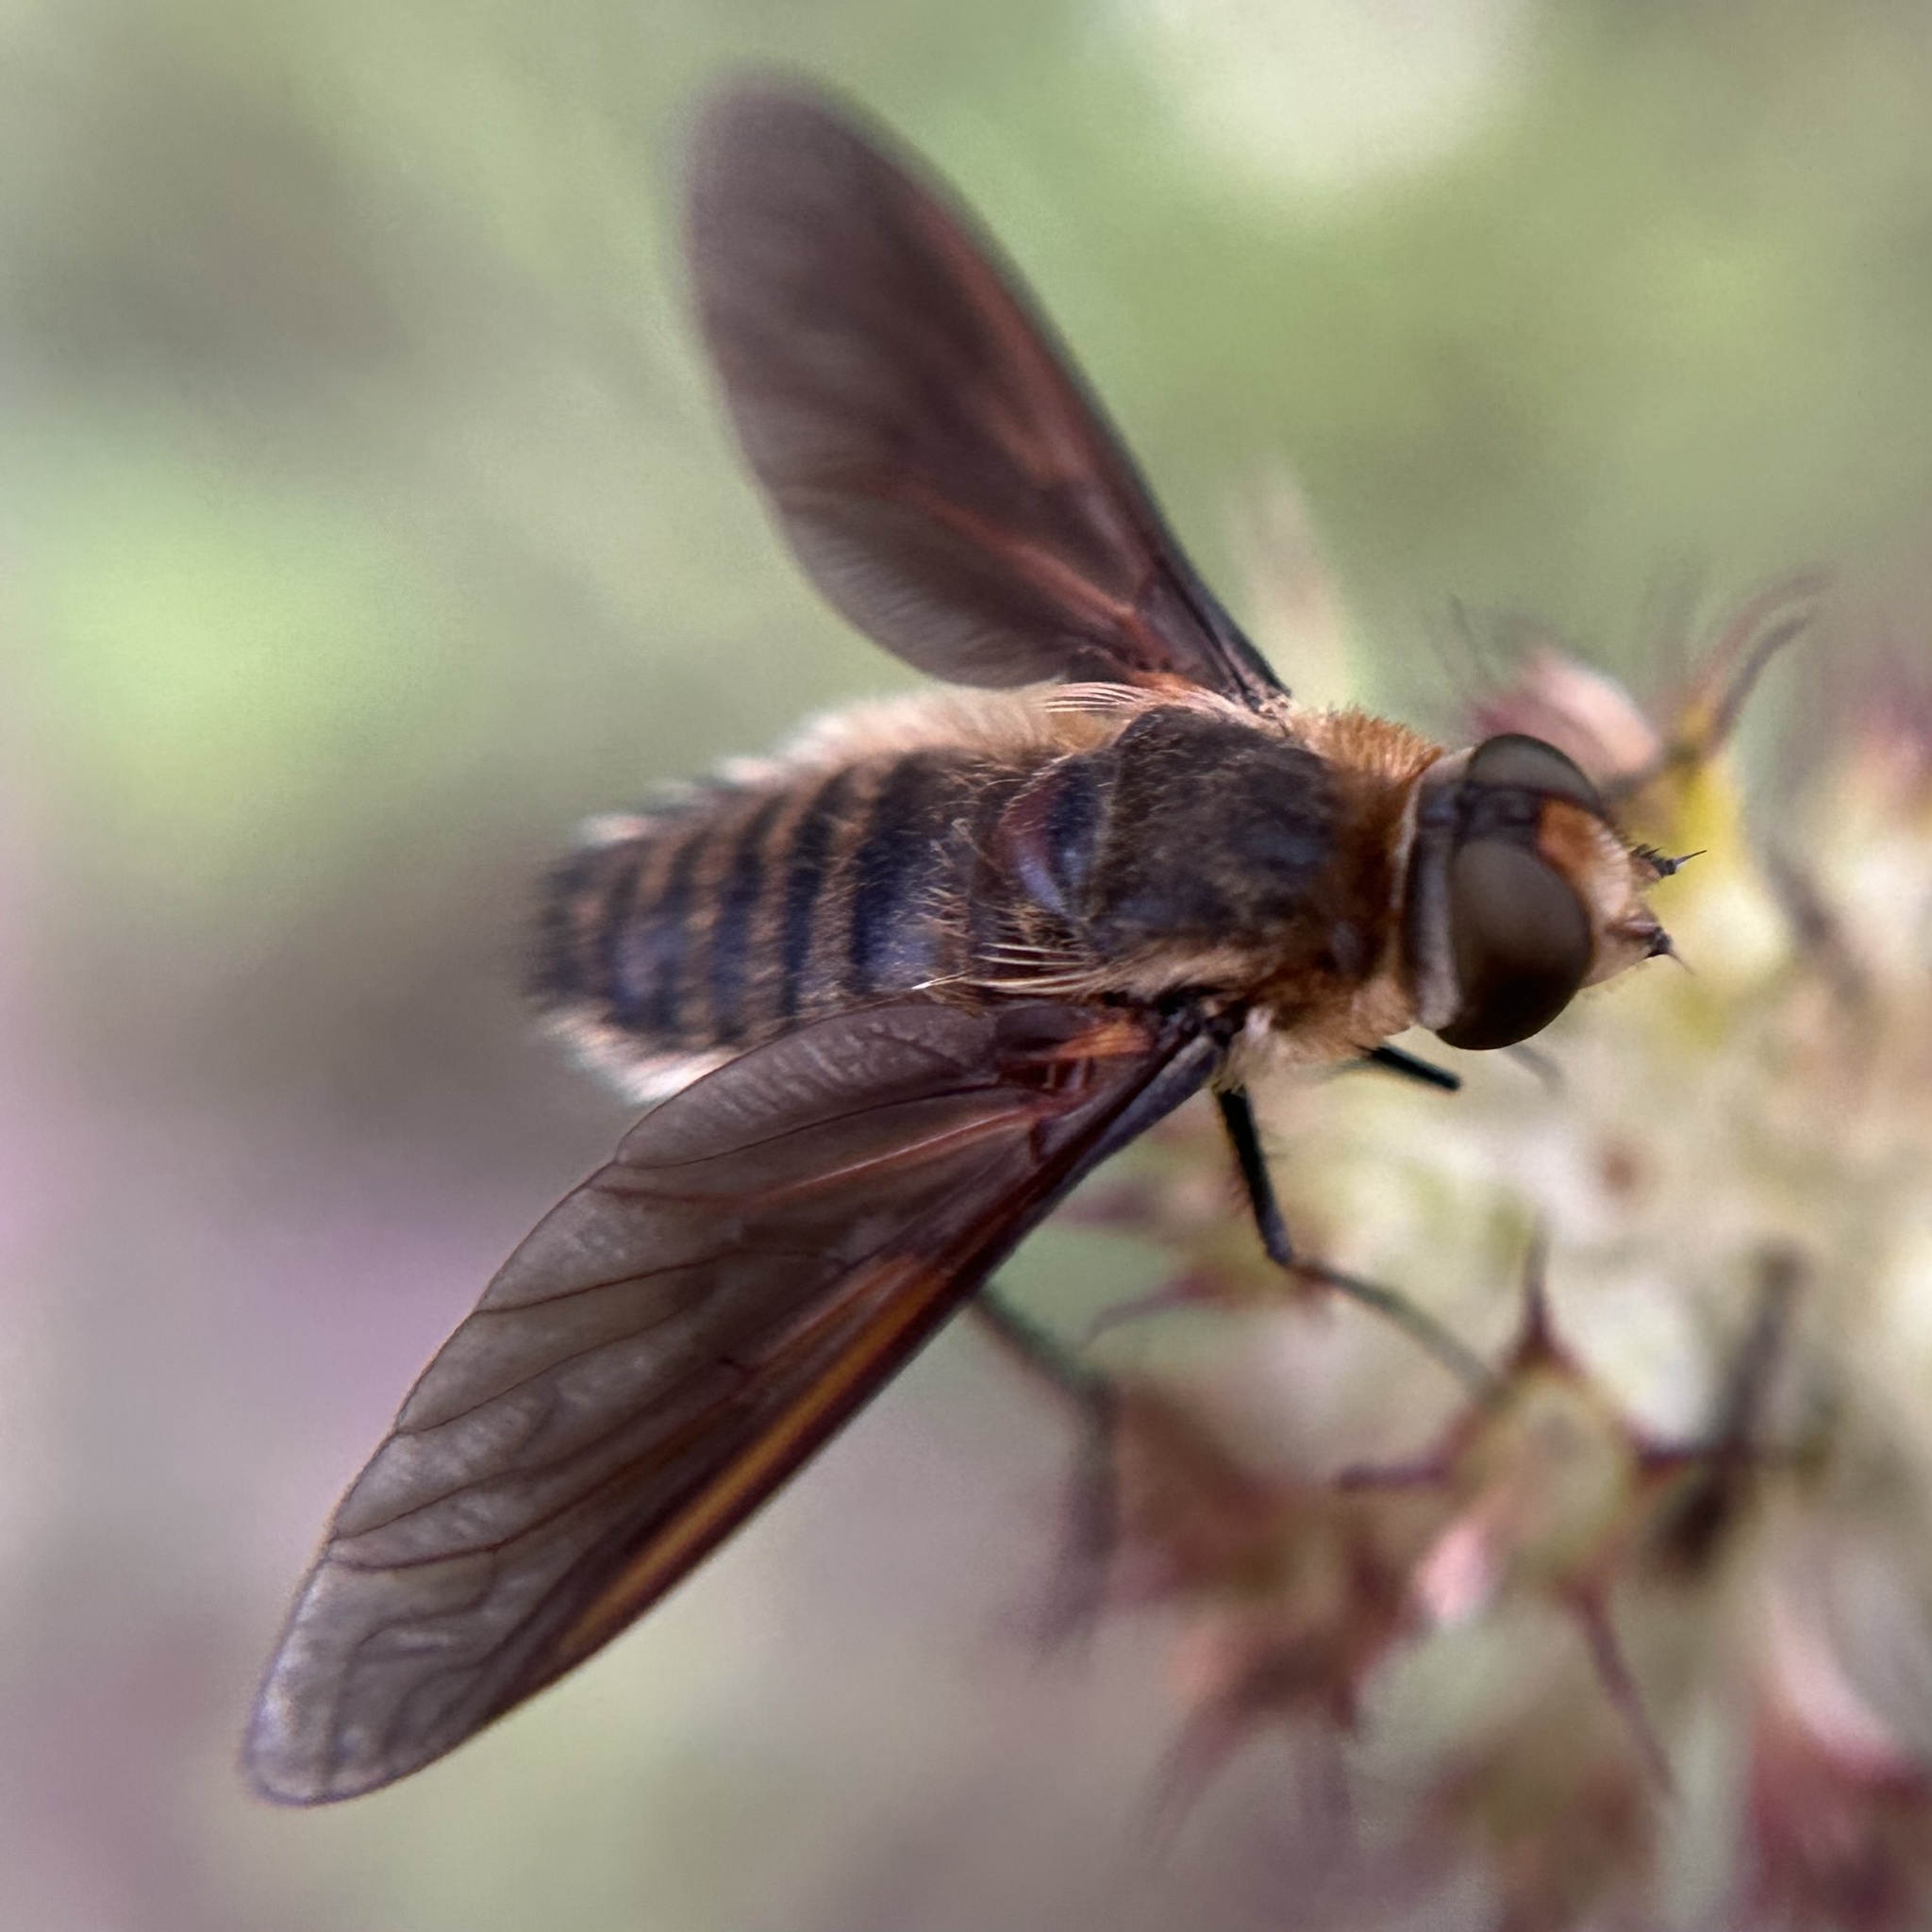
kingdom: Animalia
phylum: Arthropoda
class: Insecta
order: Diptera
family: Bombyliidae
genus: Poecilanthrax
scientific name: Poecilanthrax lucifer
